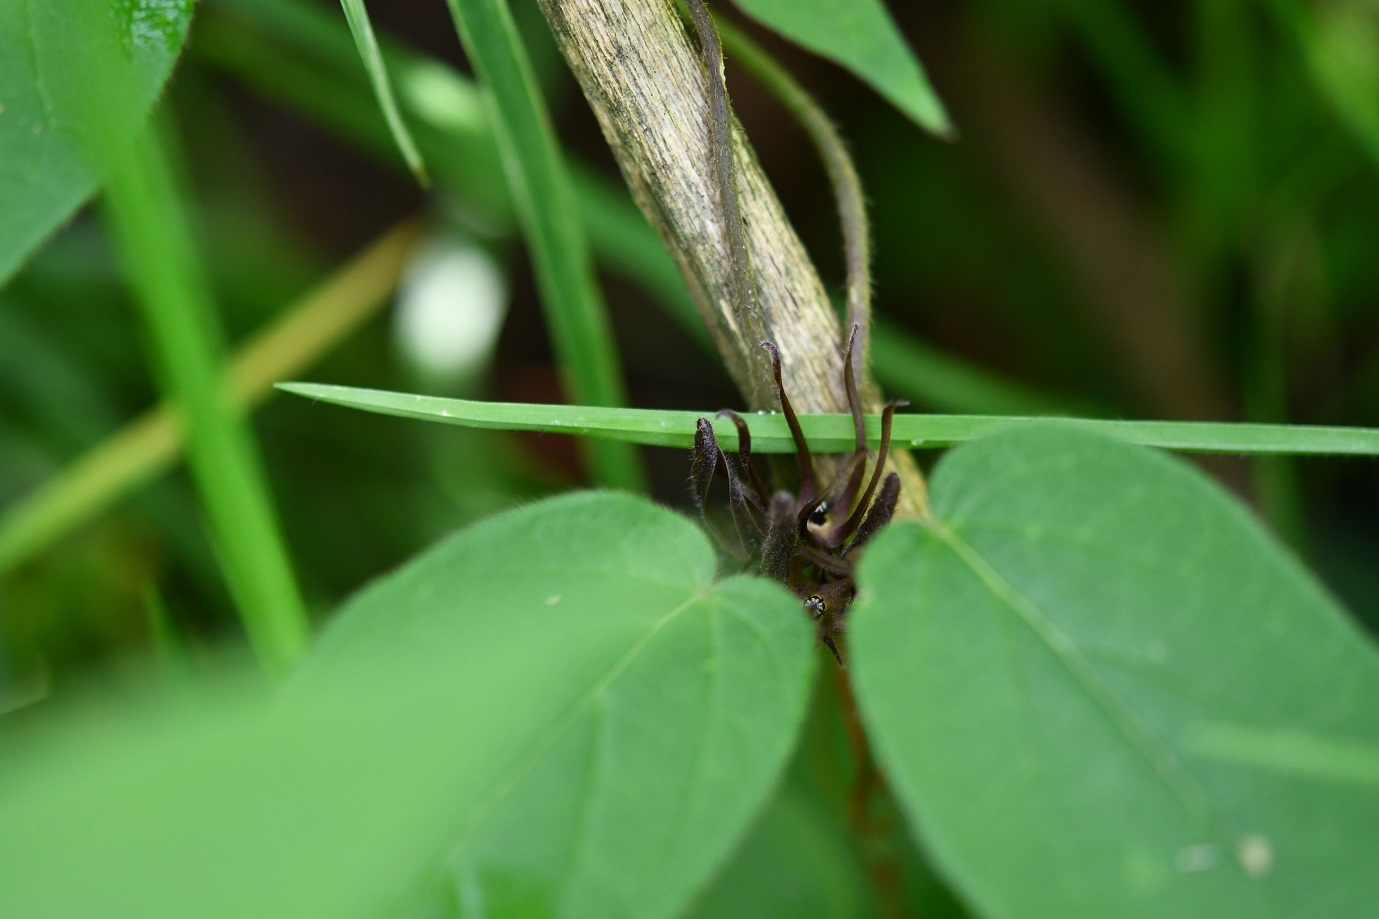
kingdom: Plantae
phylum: Tracheophyta
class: Magnoliopsida
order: Gentianales
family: Apocynaceae
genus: Matelea
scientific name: Matelea medusae
